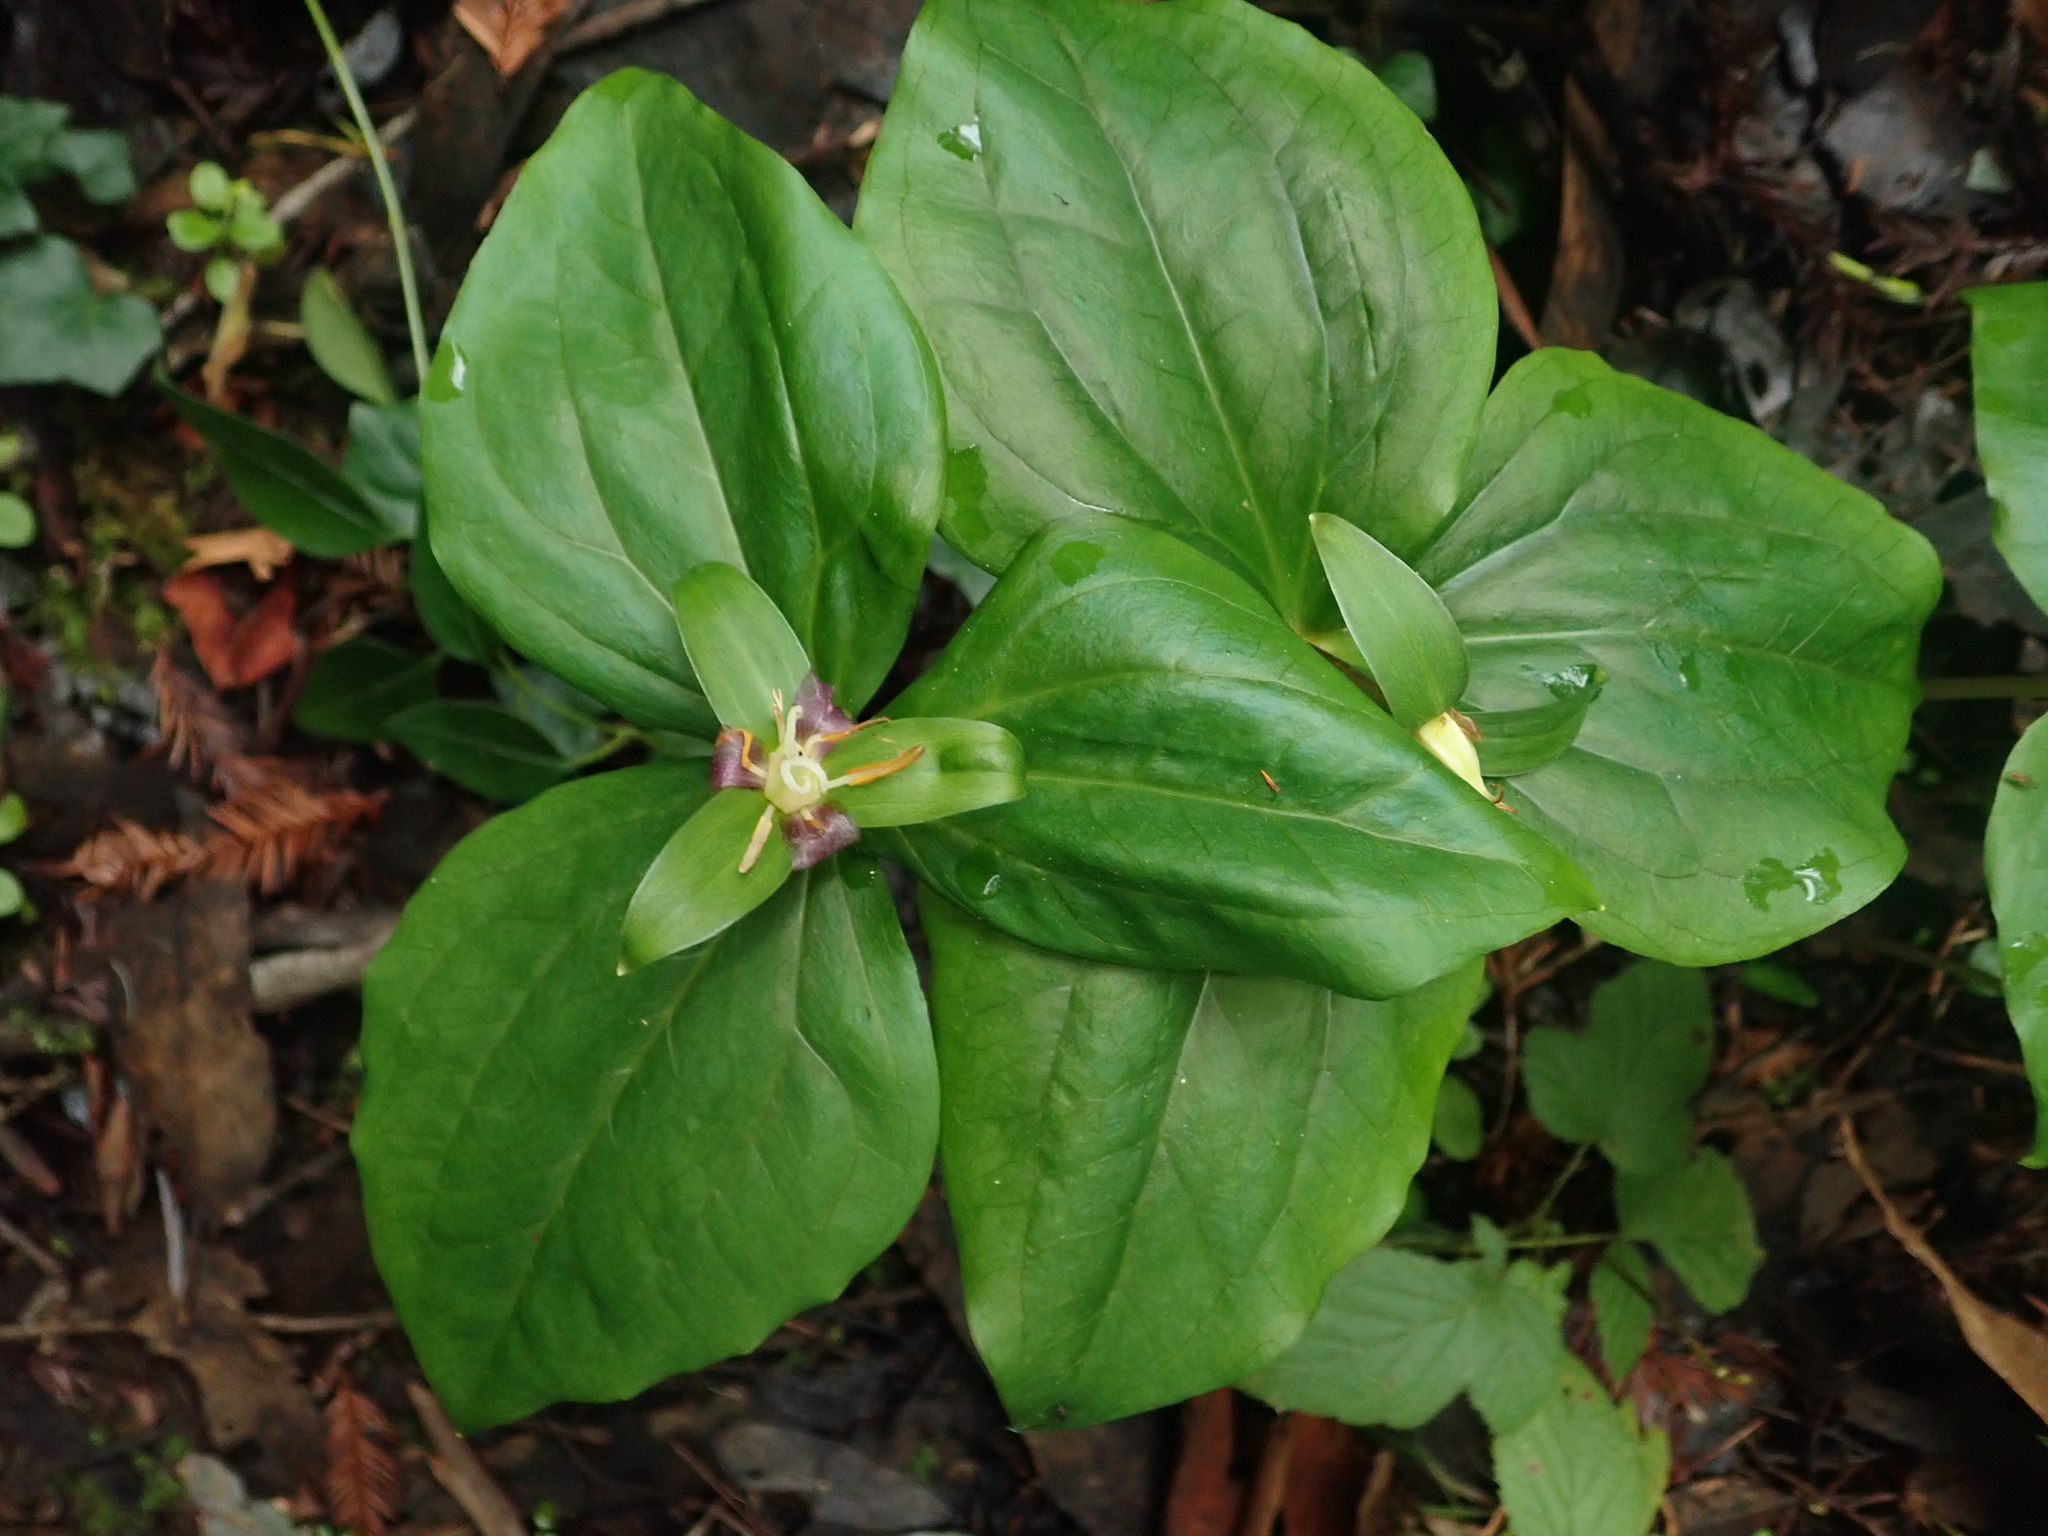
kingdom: Plantae
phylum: Tracheophyta
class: Liliopsida
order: Liliales
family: Melanthiaceae
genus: Trillium
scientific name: Trillium ovatum
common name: Pacific trillium
